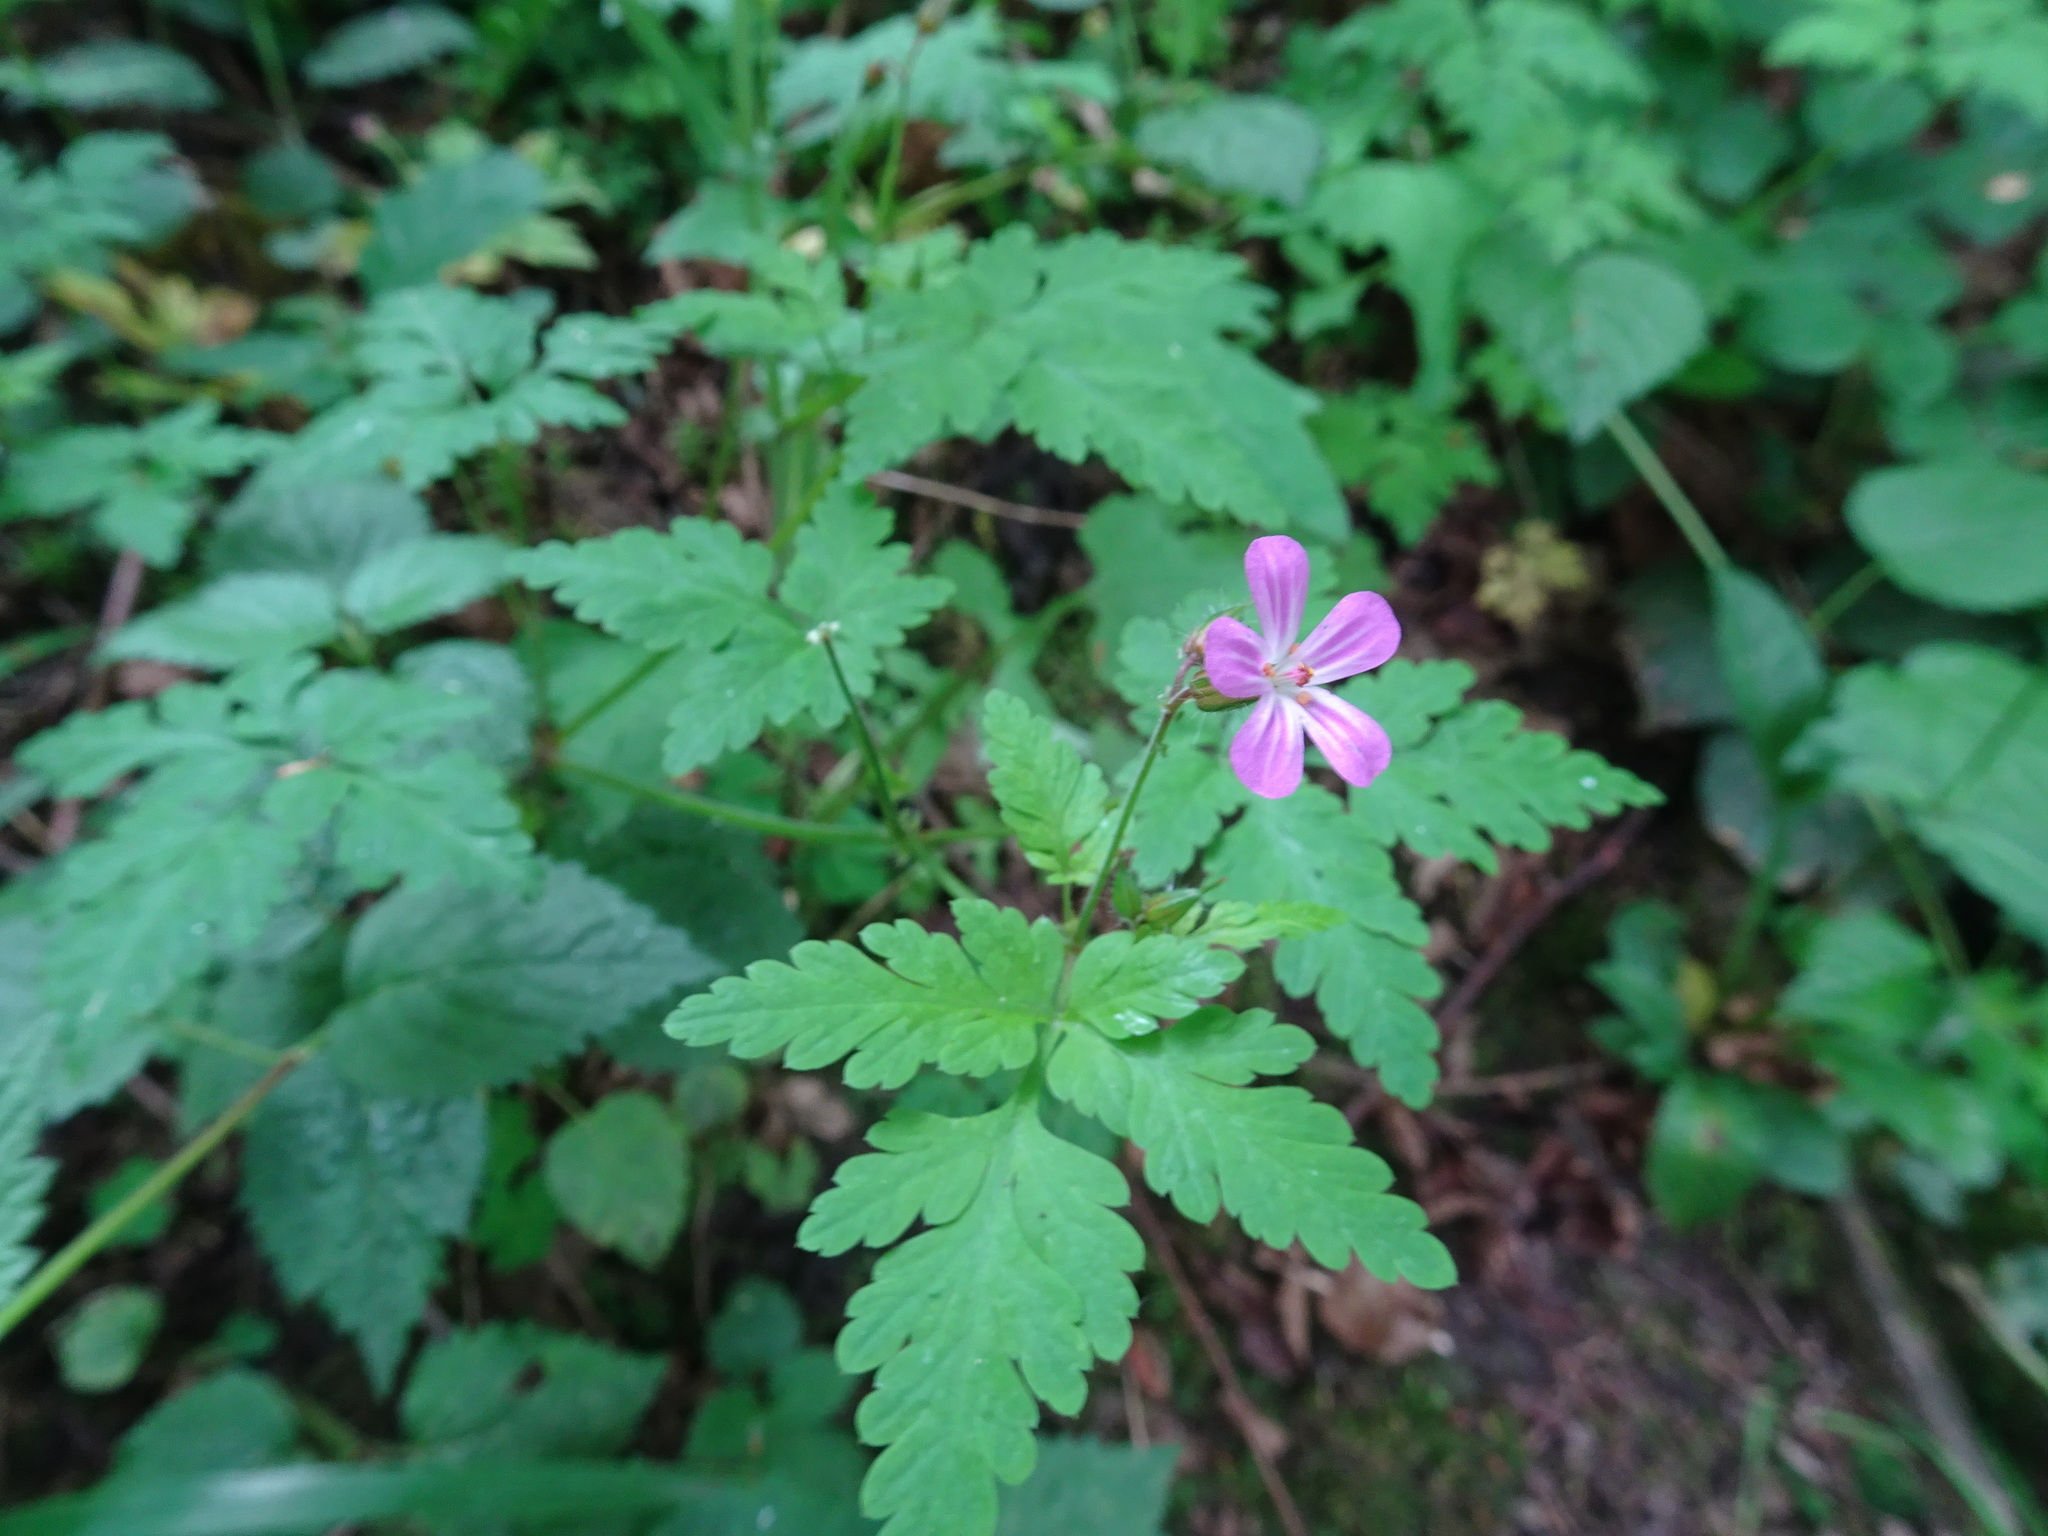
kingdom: Plantae
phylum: Tracheophyta
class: Magnoliopsida
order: Geraniales
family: Geraniaceae
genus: Geranium
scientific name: Geranium robertianum
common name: Herb-robert
